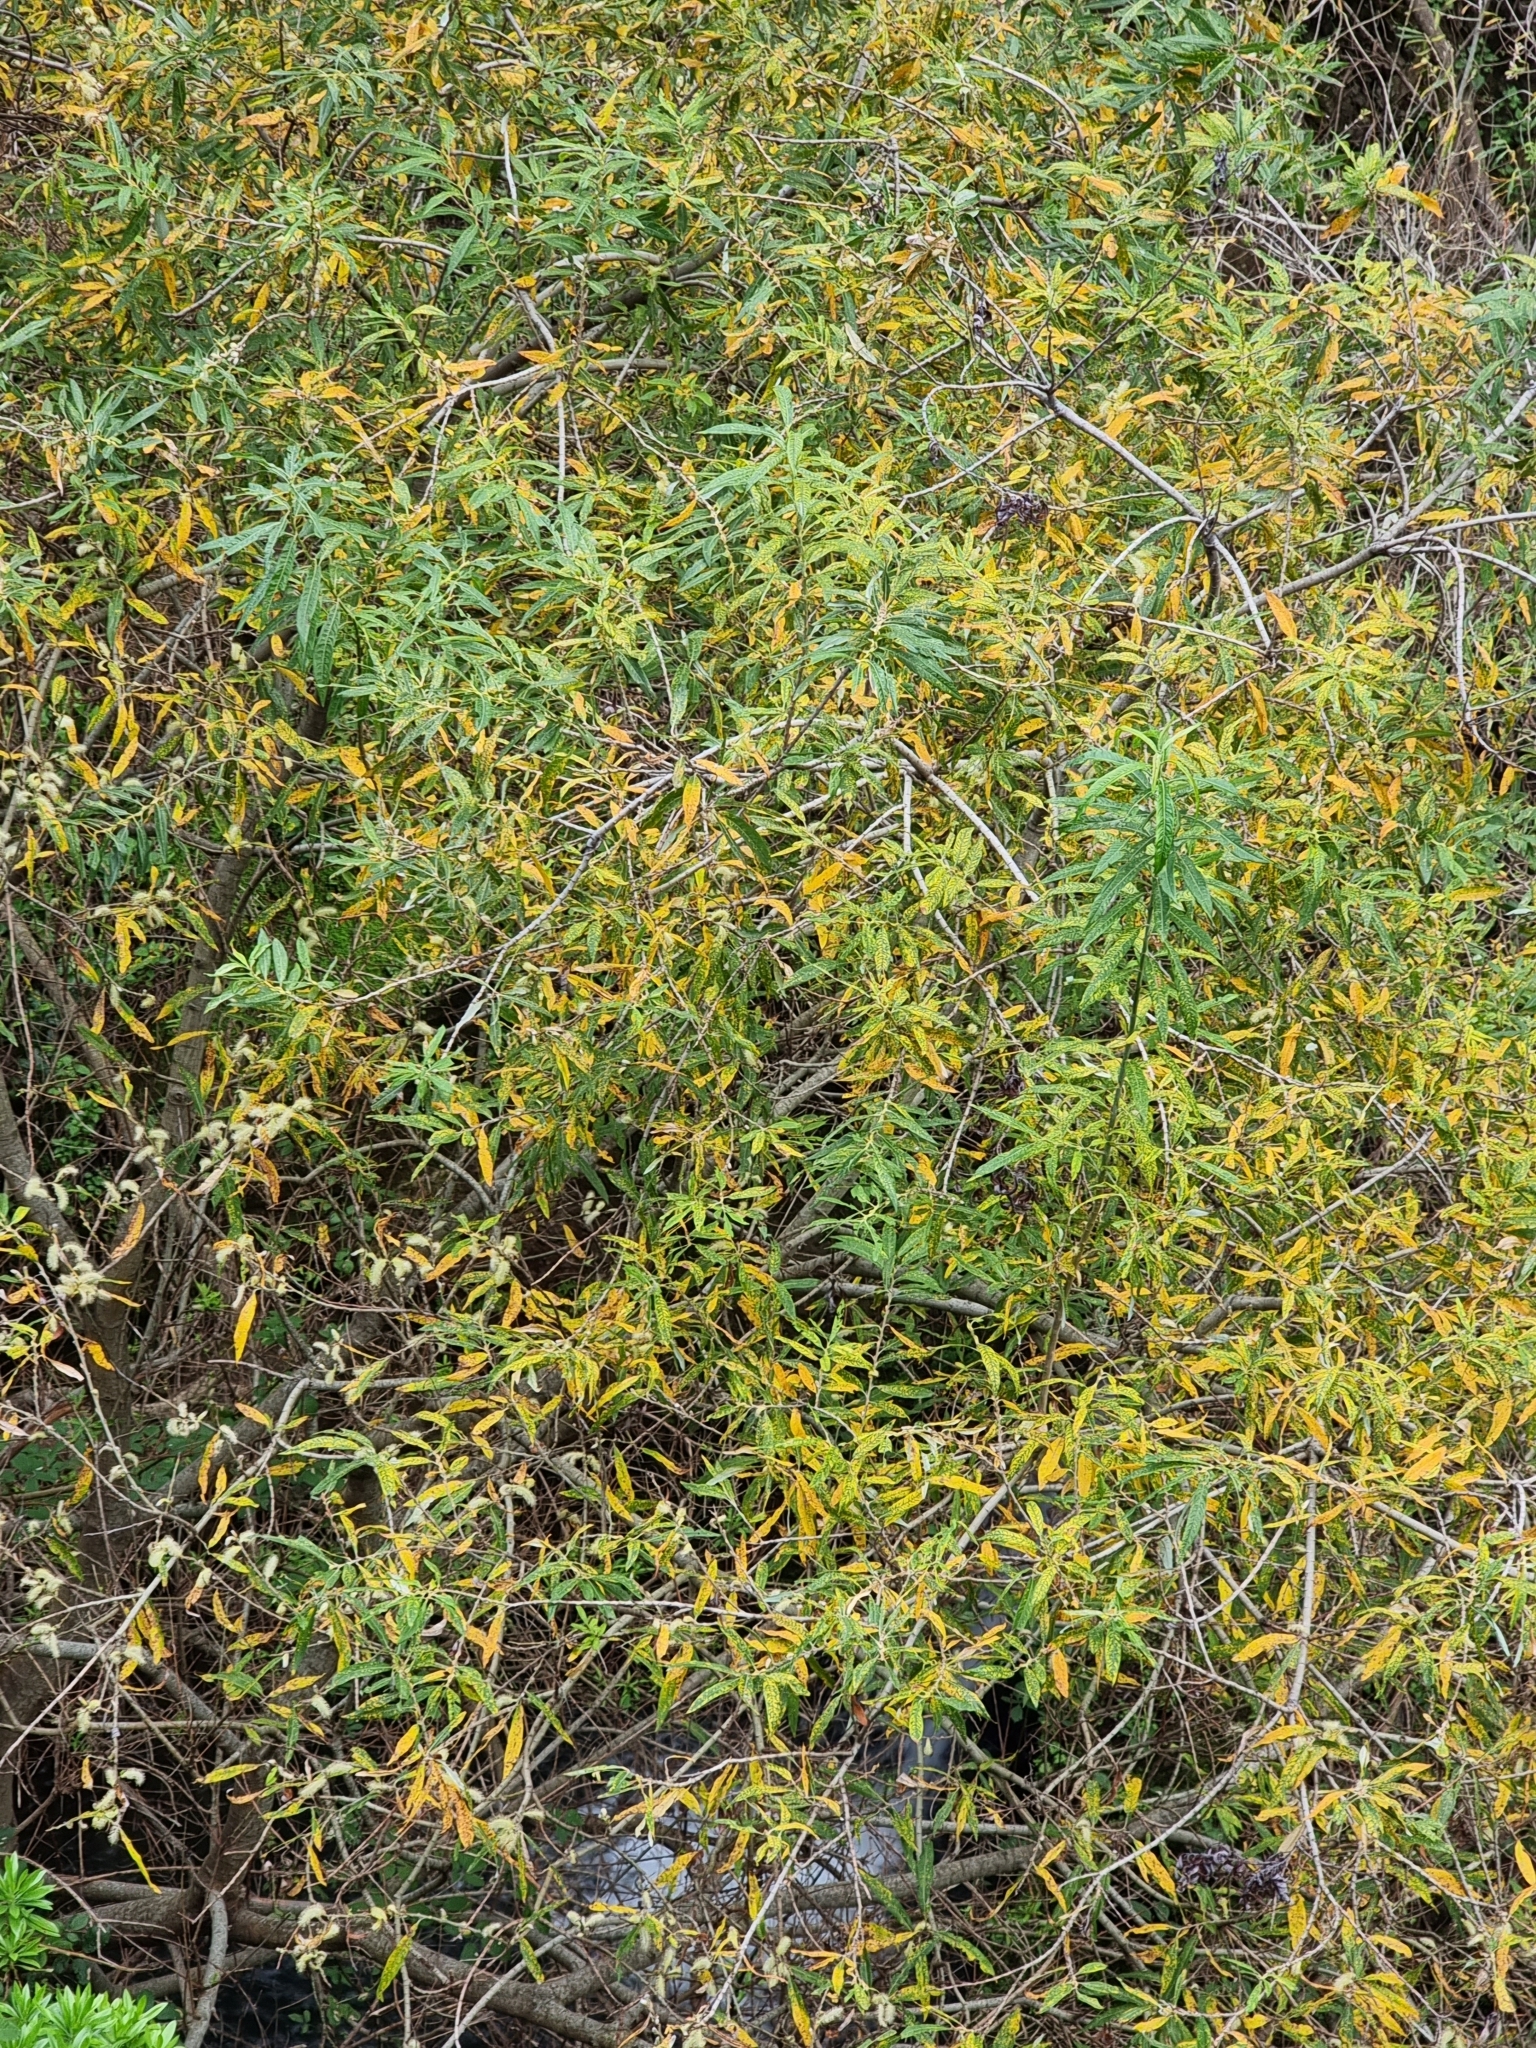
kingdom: Plantae
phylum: Tracheophyta
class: Magnoliopsida
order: Malpighiales
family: Salicaceae
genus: Salix
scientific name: Salix canariensis
